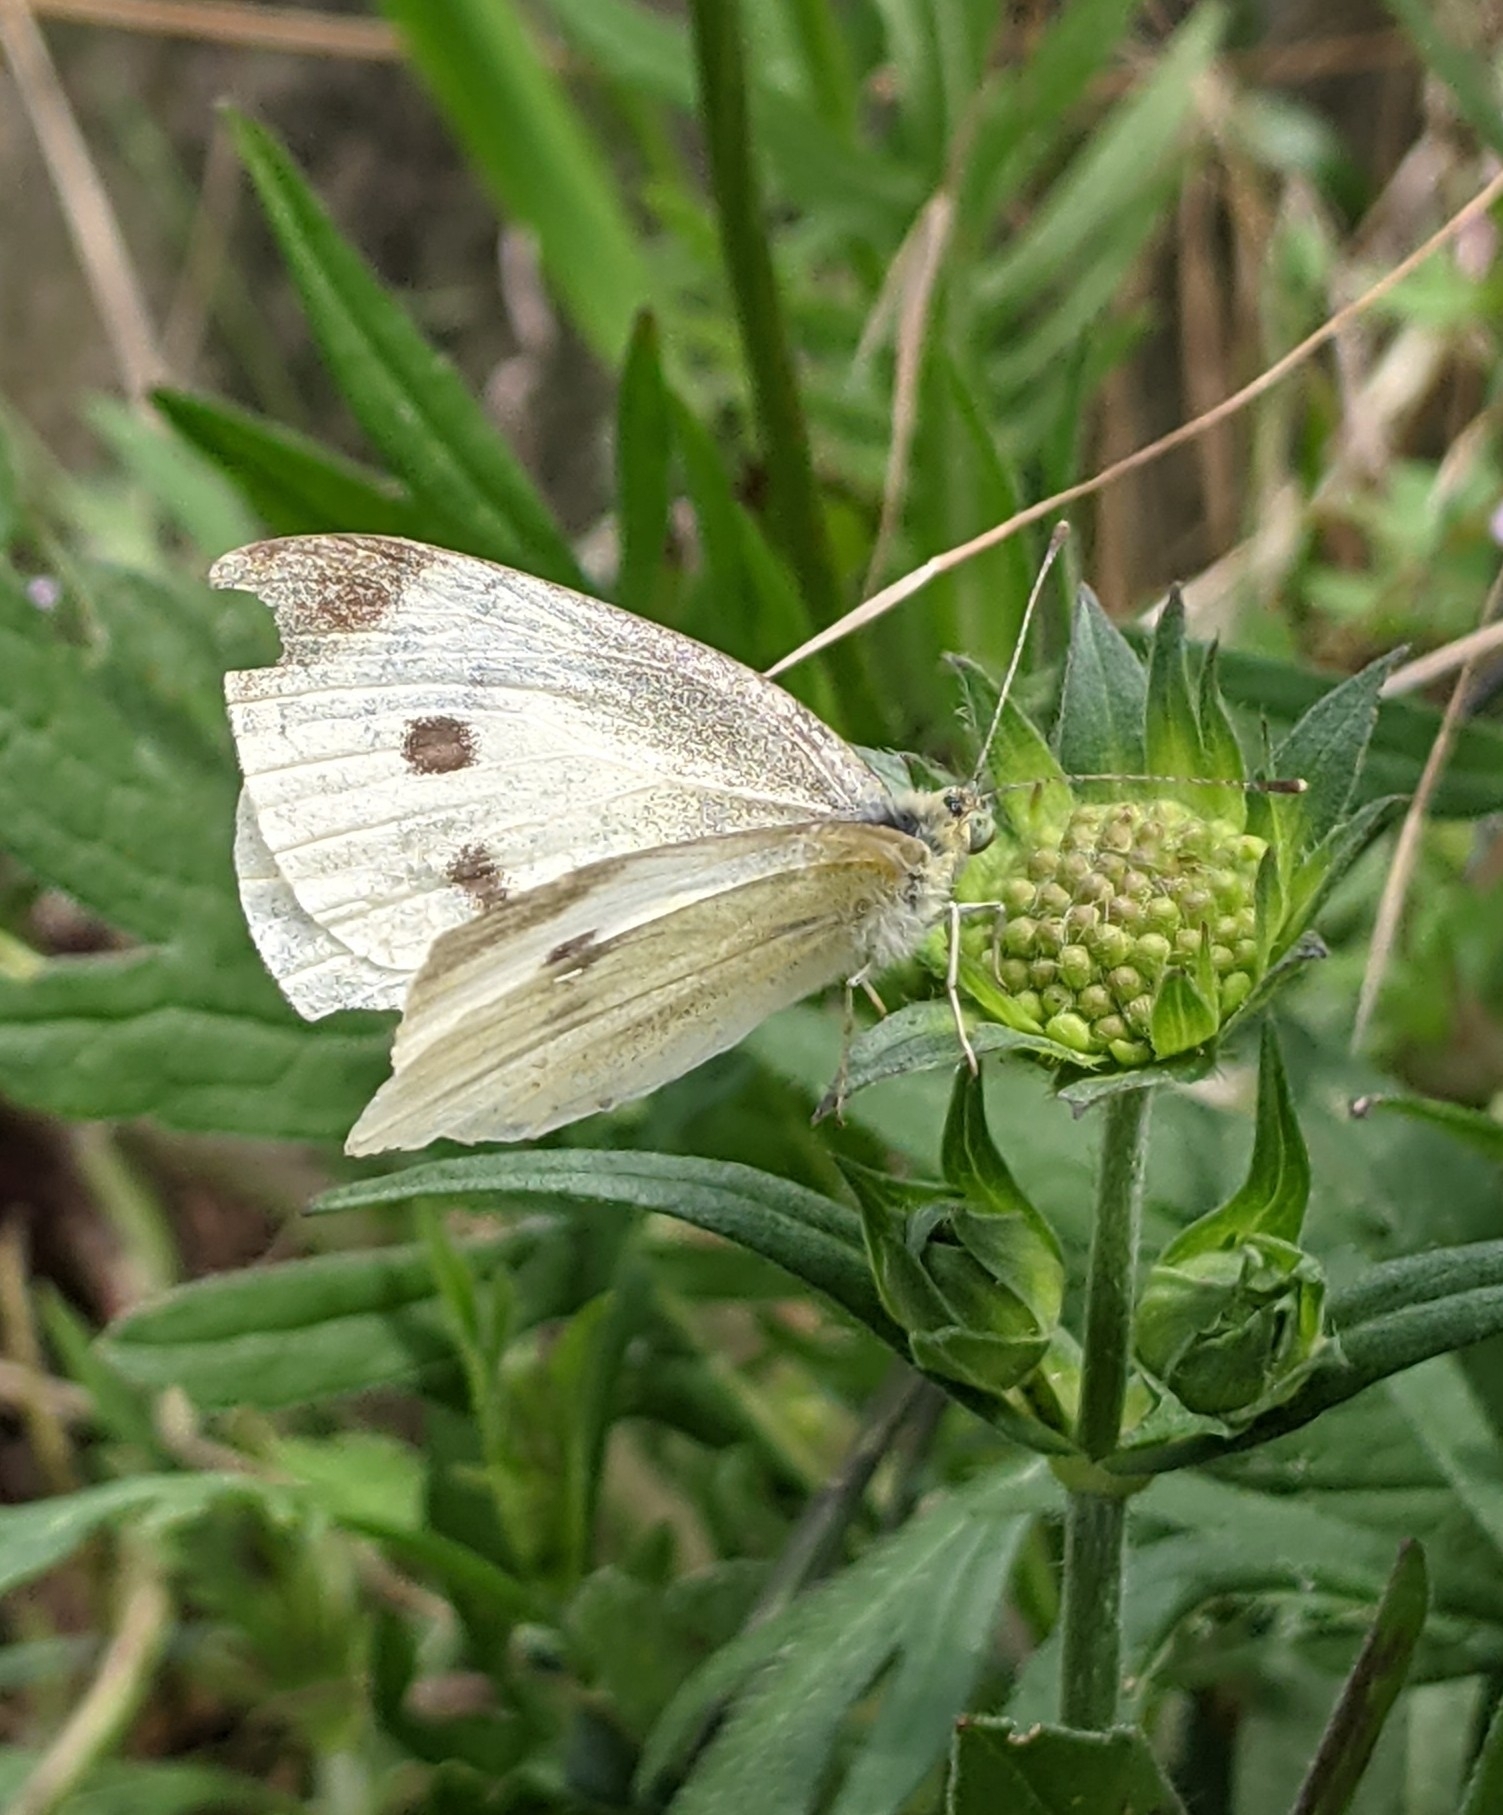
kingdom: Animalia
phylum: Arthropoda
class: Insecta
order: Lepidoptera
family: Pieridae
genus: Pieris
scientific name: Pieris rapae
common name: Small white
